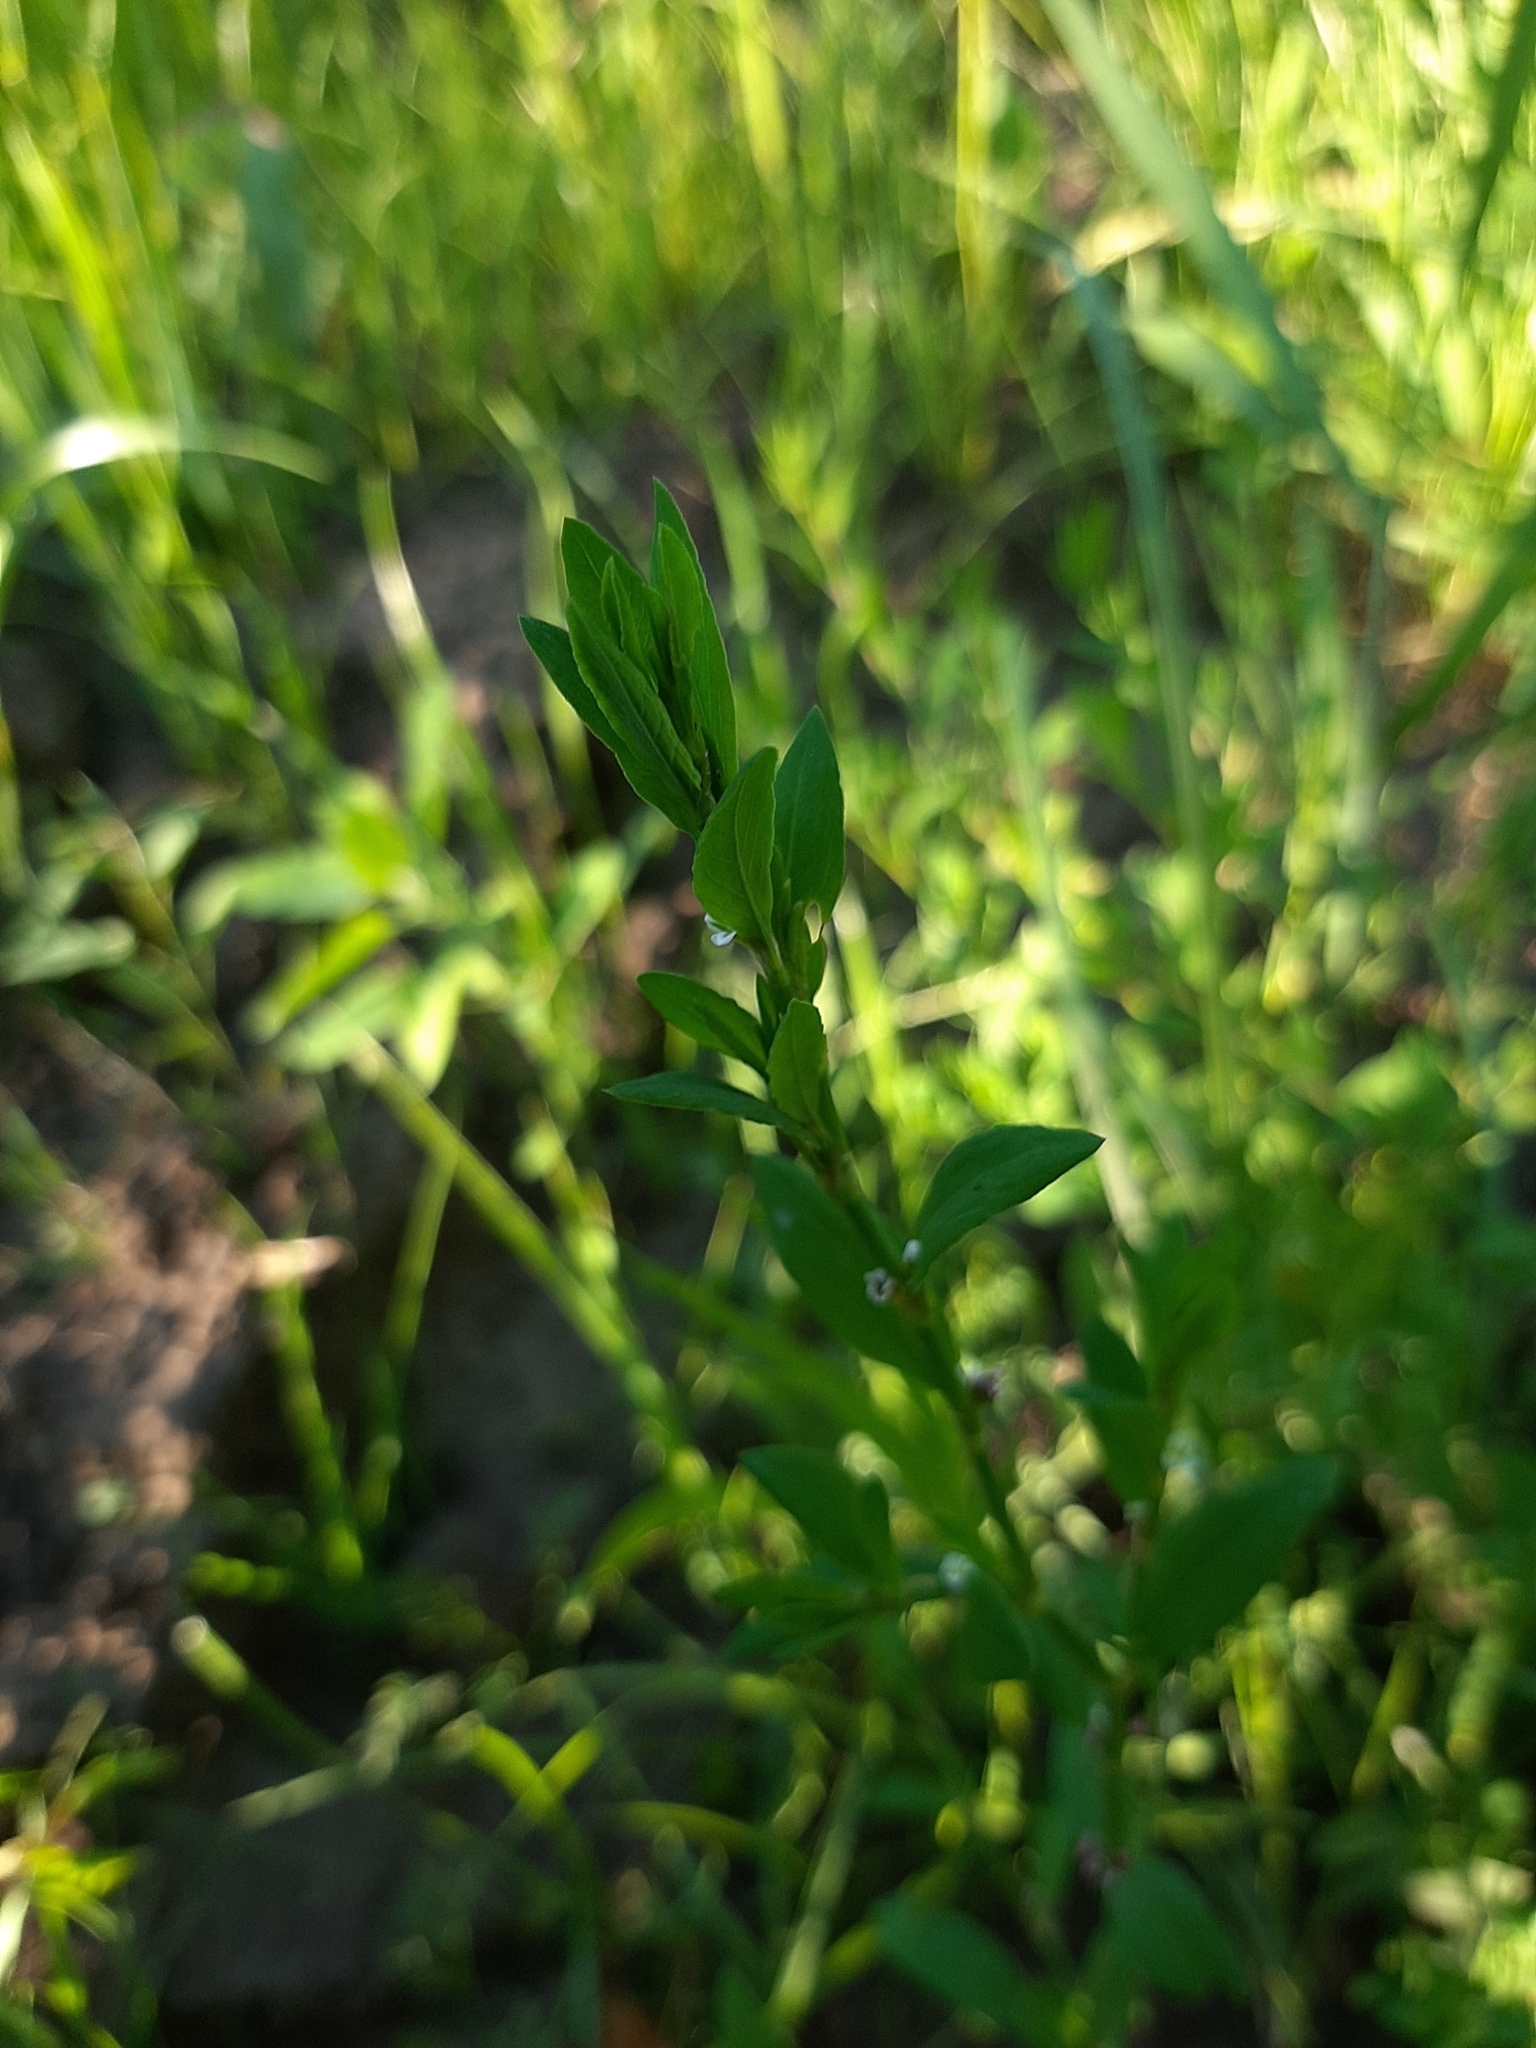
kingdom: Plantae
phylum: Tracheophyta
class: Magnoliopsida
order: Caryophyllales
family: Polygonaceae
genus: Polygonum
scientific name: Polygonum
